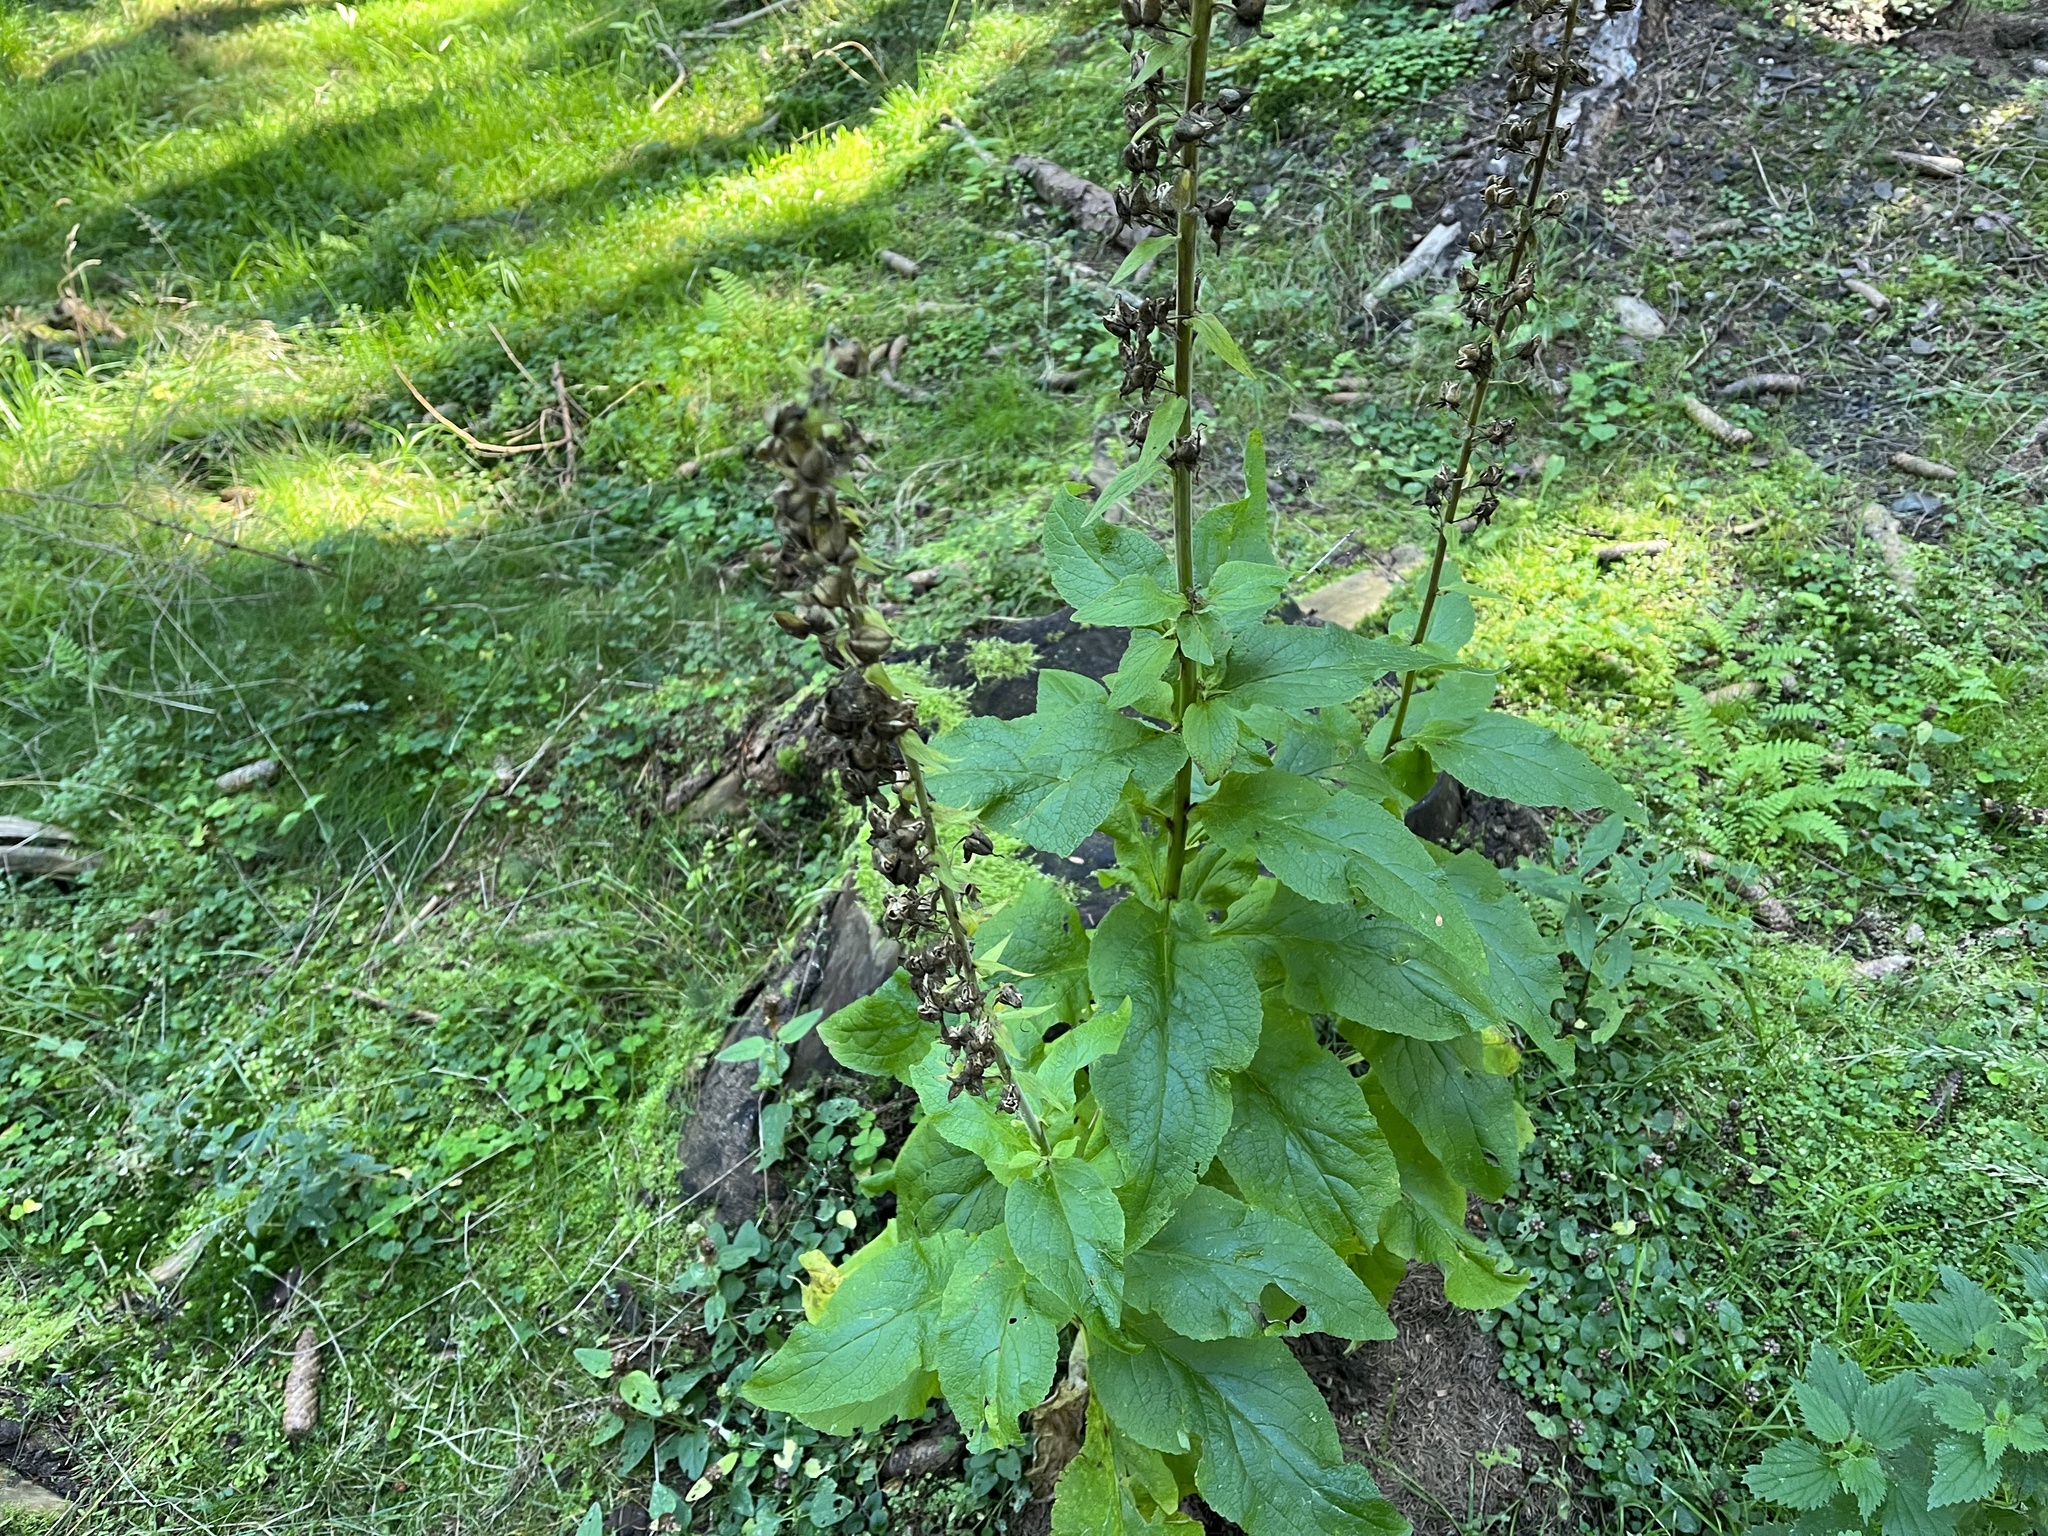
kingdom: Plantae
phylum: Tracheophyta
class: Magnoliopsida
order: Lamiales
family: Plantaginaceae
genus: Digitalis
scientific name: Digitalis purpurea
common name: Foxglove
